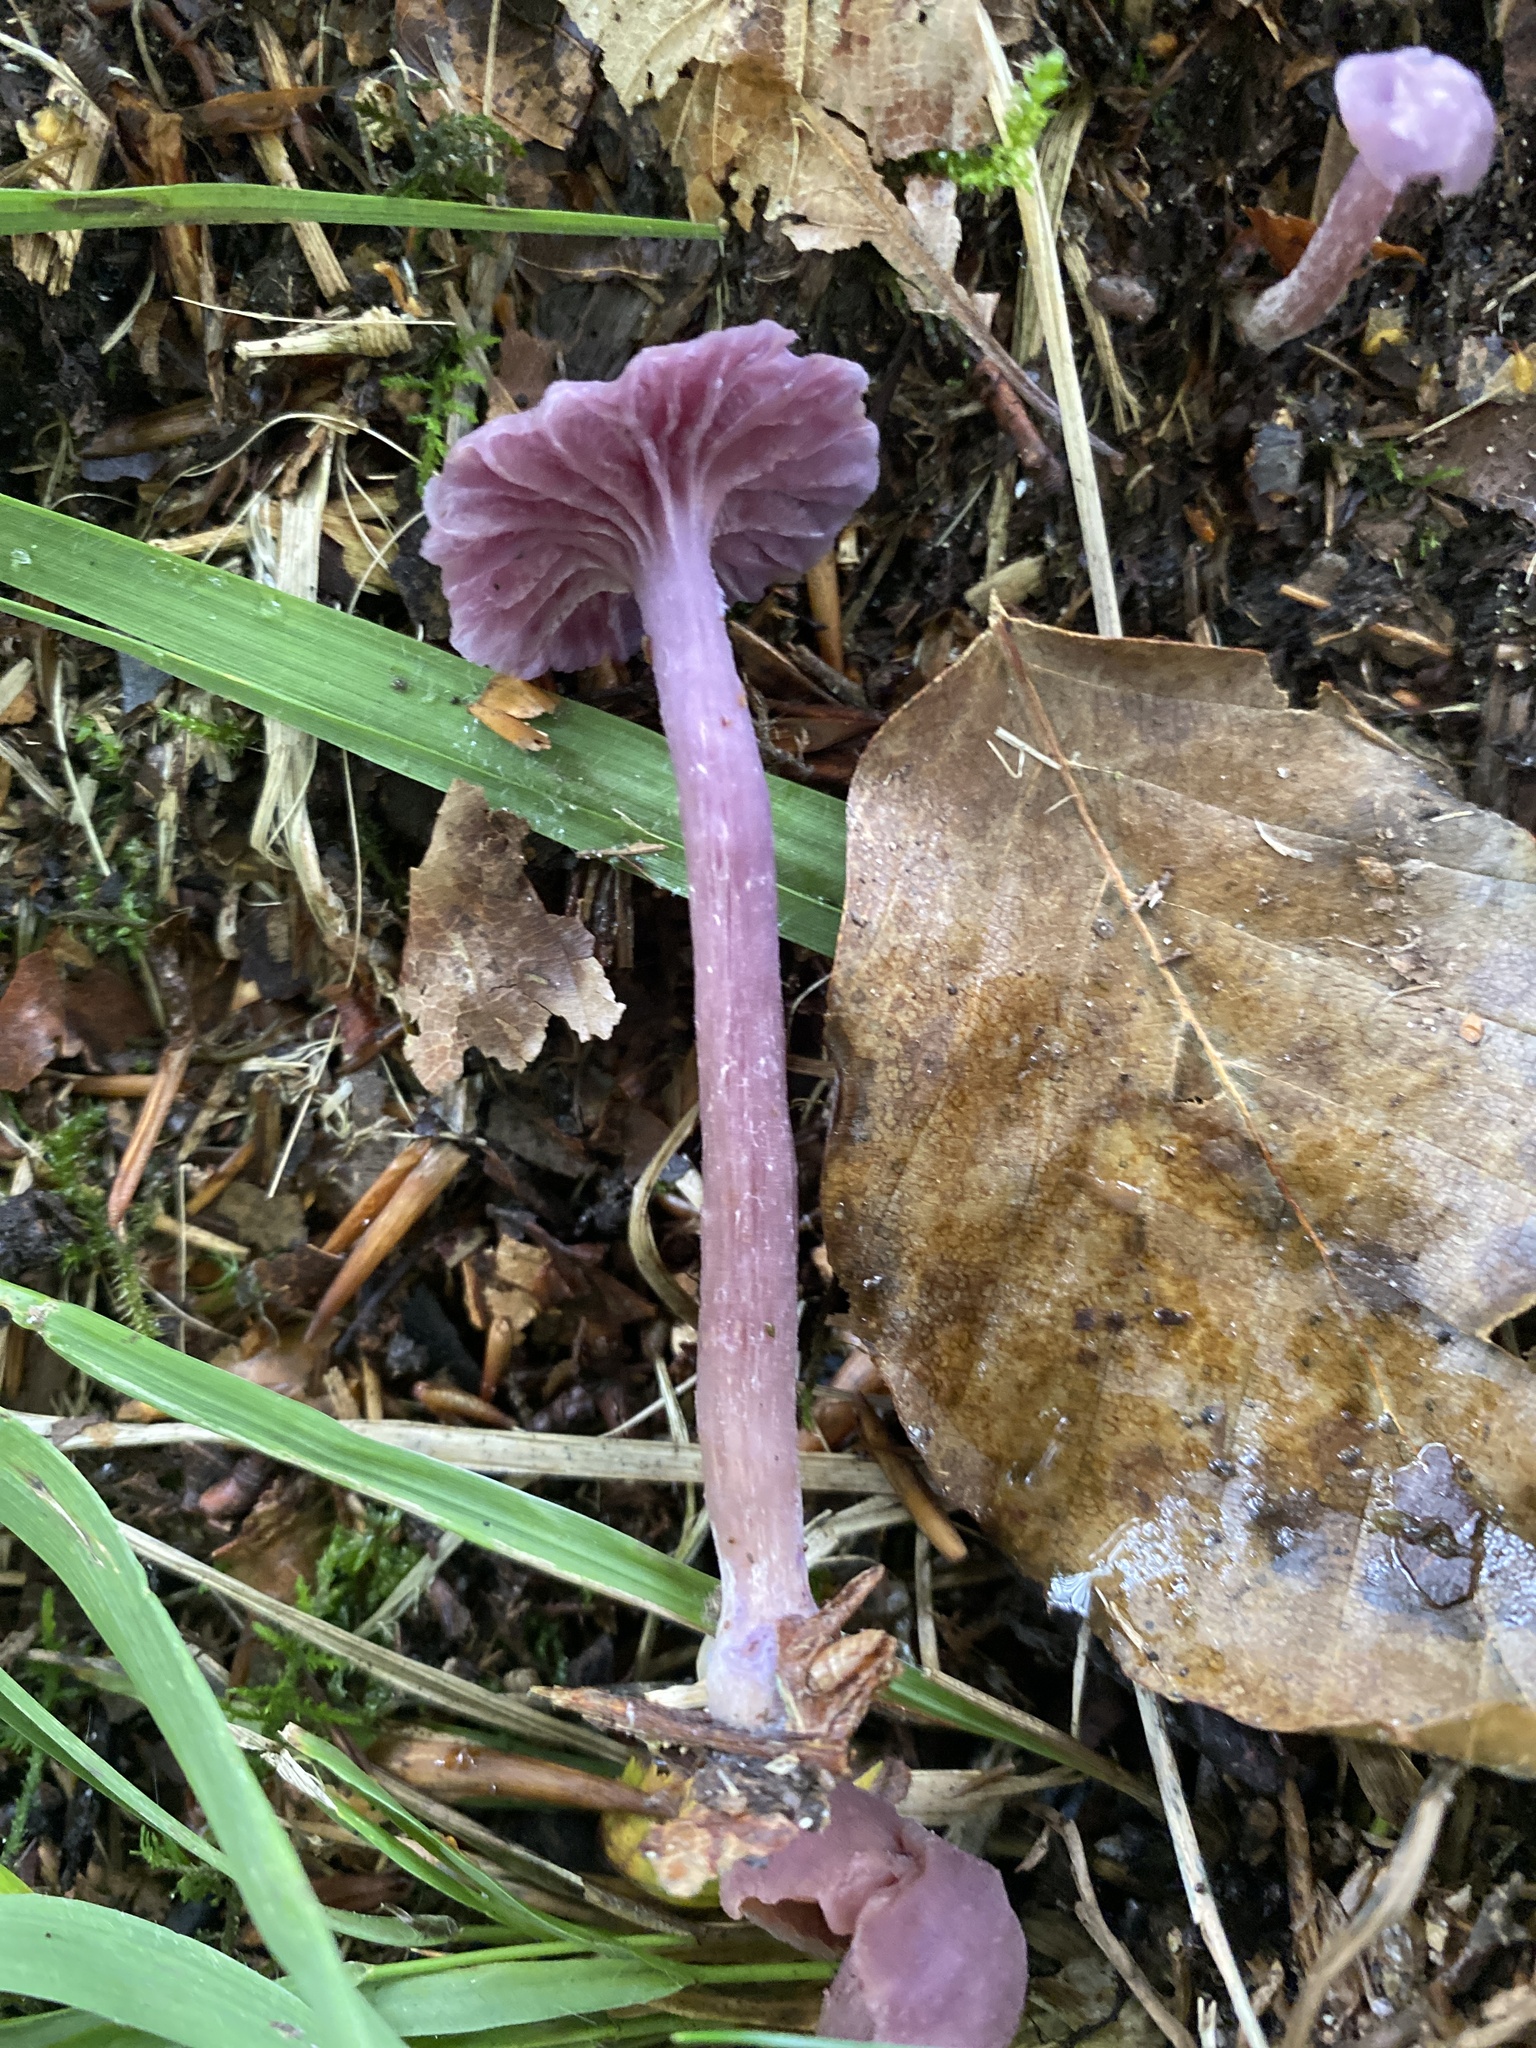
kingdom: Fungi
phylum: Basidiomycota
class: Agaricomycetes
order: Agaricales
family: Hydnangiaceae
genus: Laccaria
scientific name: Laccaria amethystina
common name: Amethyst deceiver
